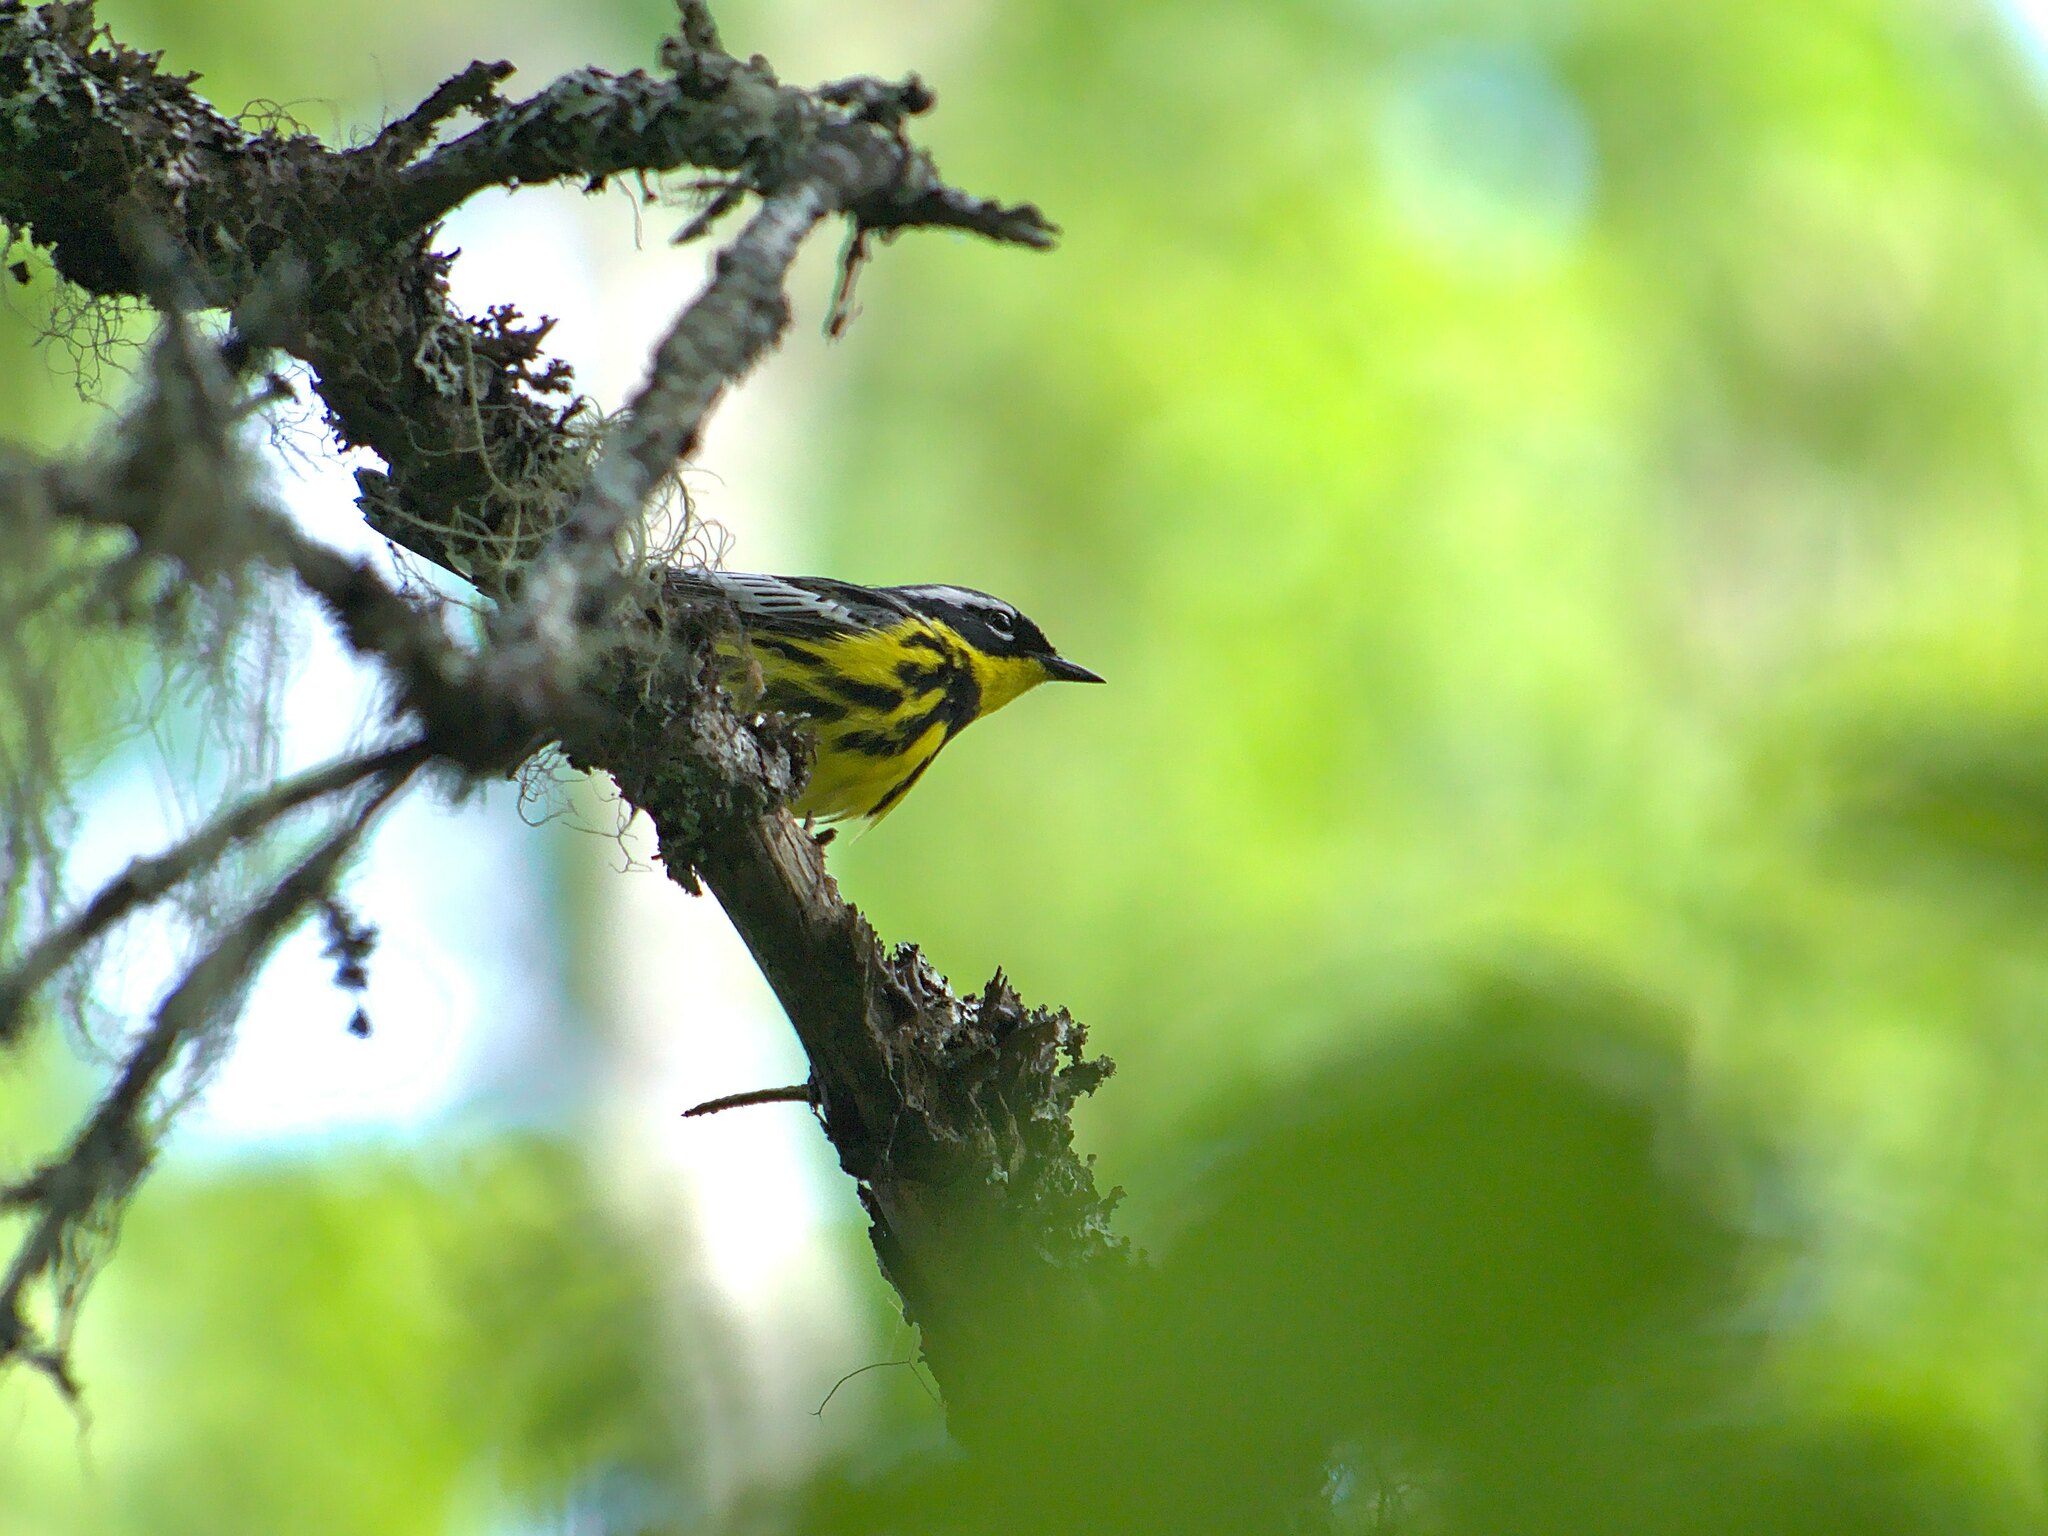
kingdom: Animalia
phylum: Chordata
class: Aves
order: Passeriformes
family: Parulidae
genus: Setophaga
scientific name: Setophaga magnolia
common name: Magnolia warbler
